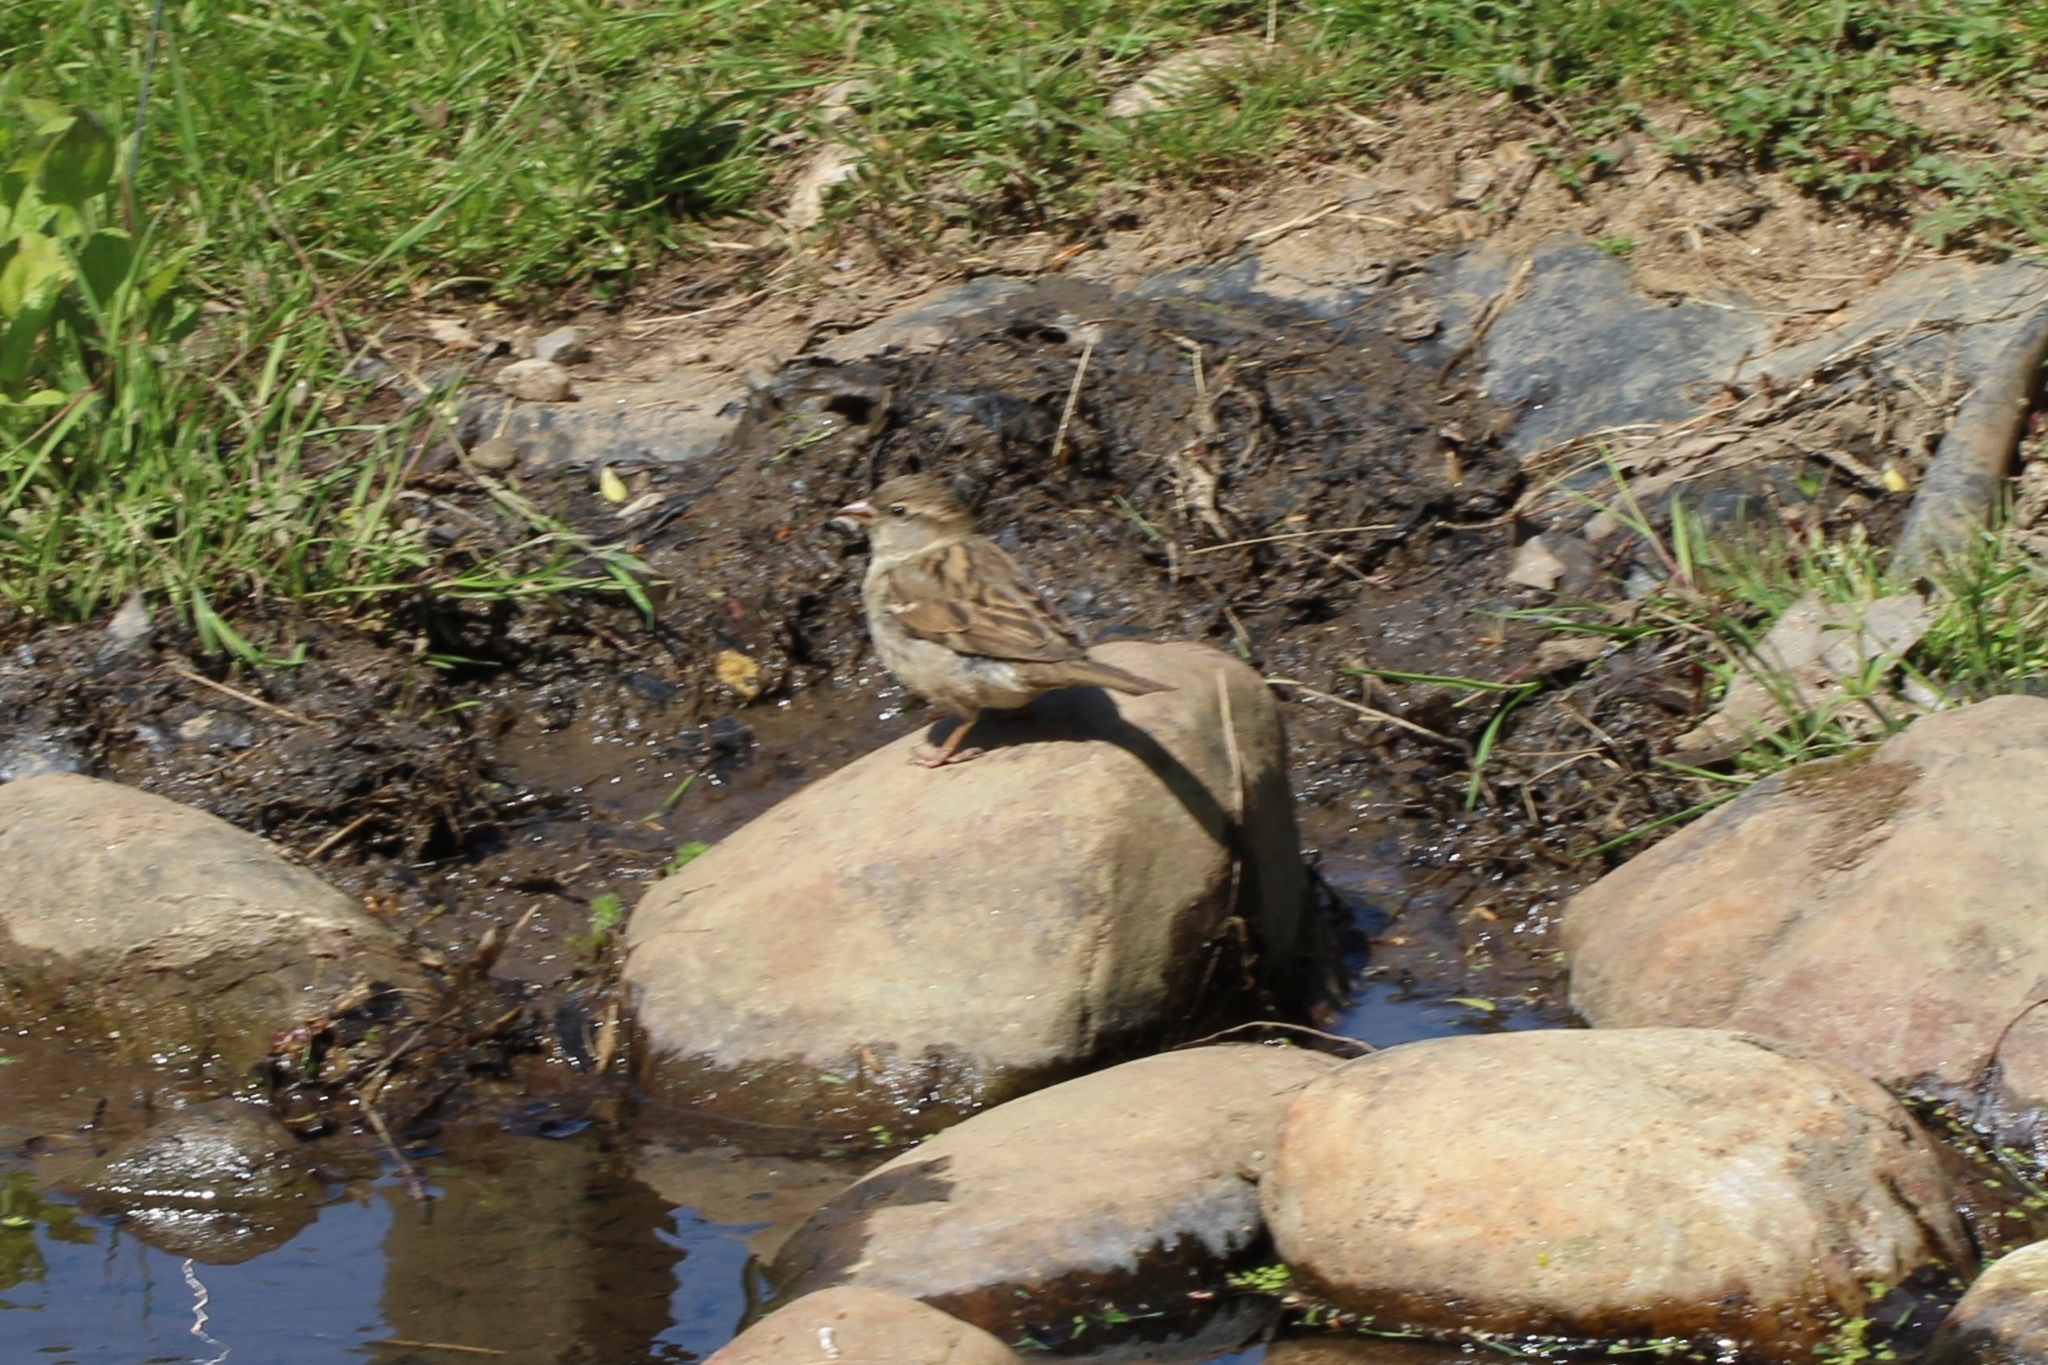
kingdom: Animalia
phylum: Chordata
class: Aves
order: Passeriformes
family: Passeridae
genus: Passer
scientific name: Passer domesticus
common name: House sparrow
